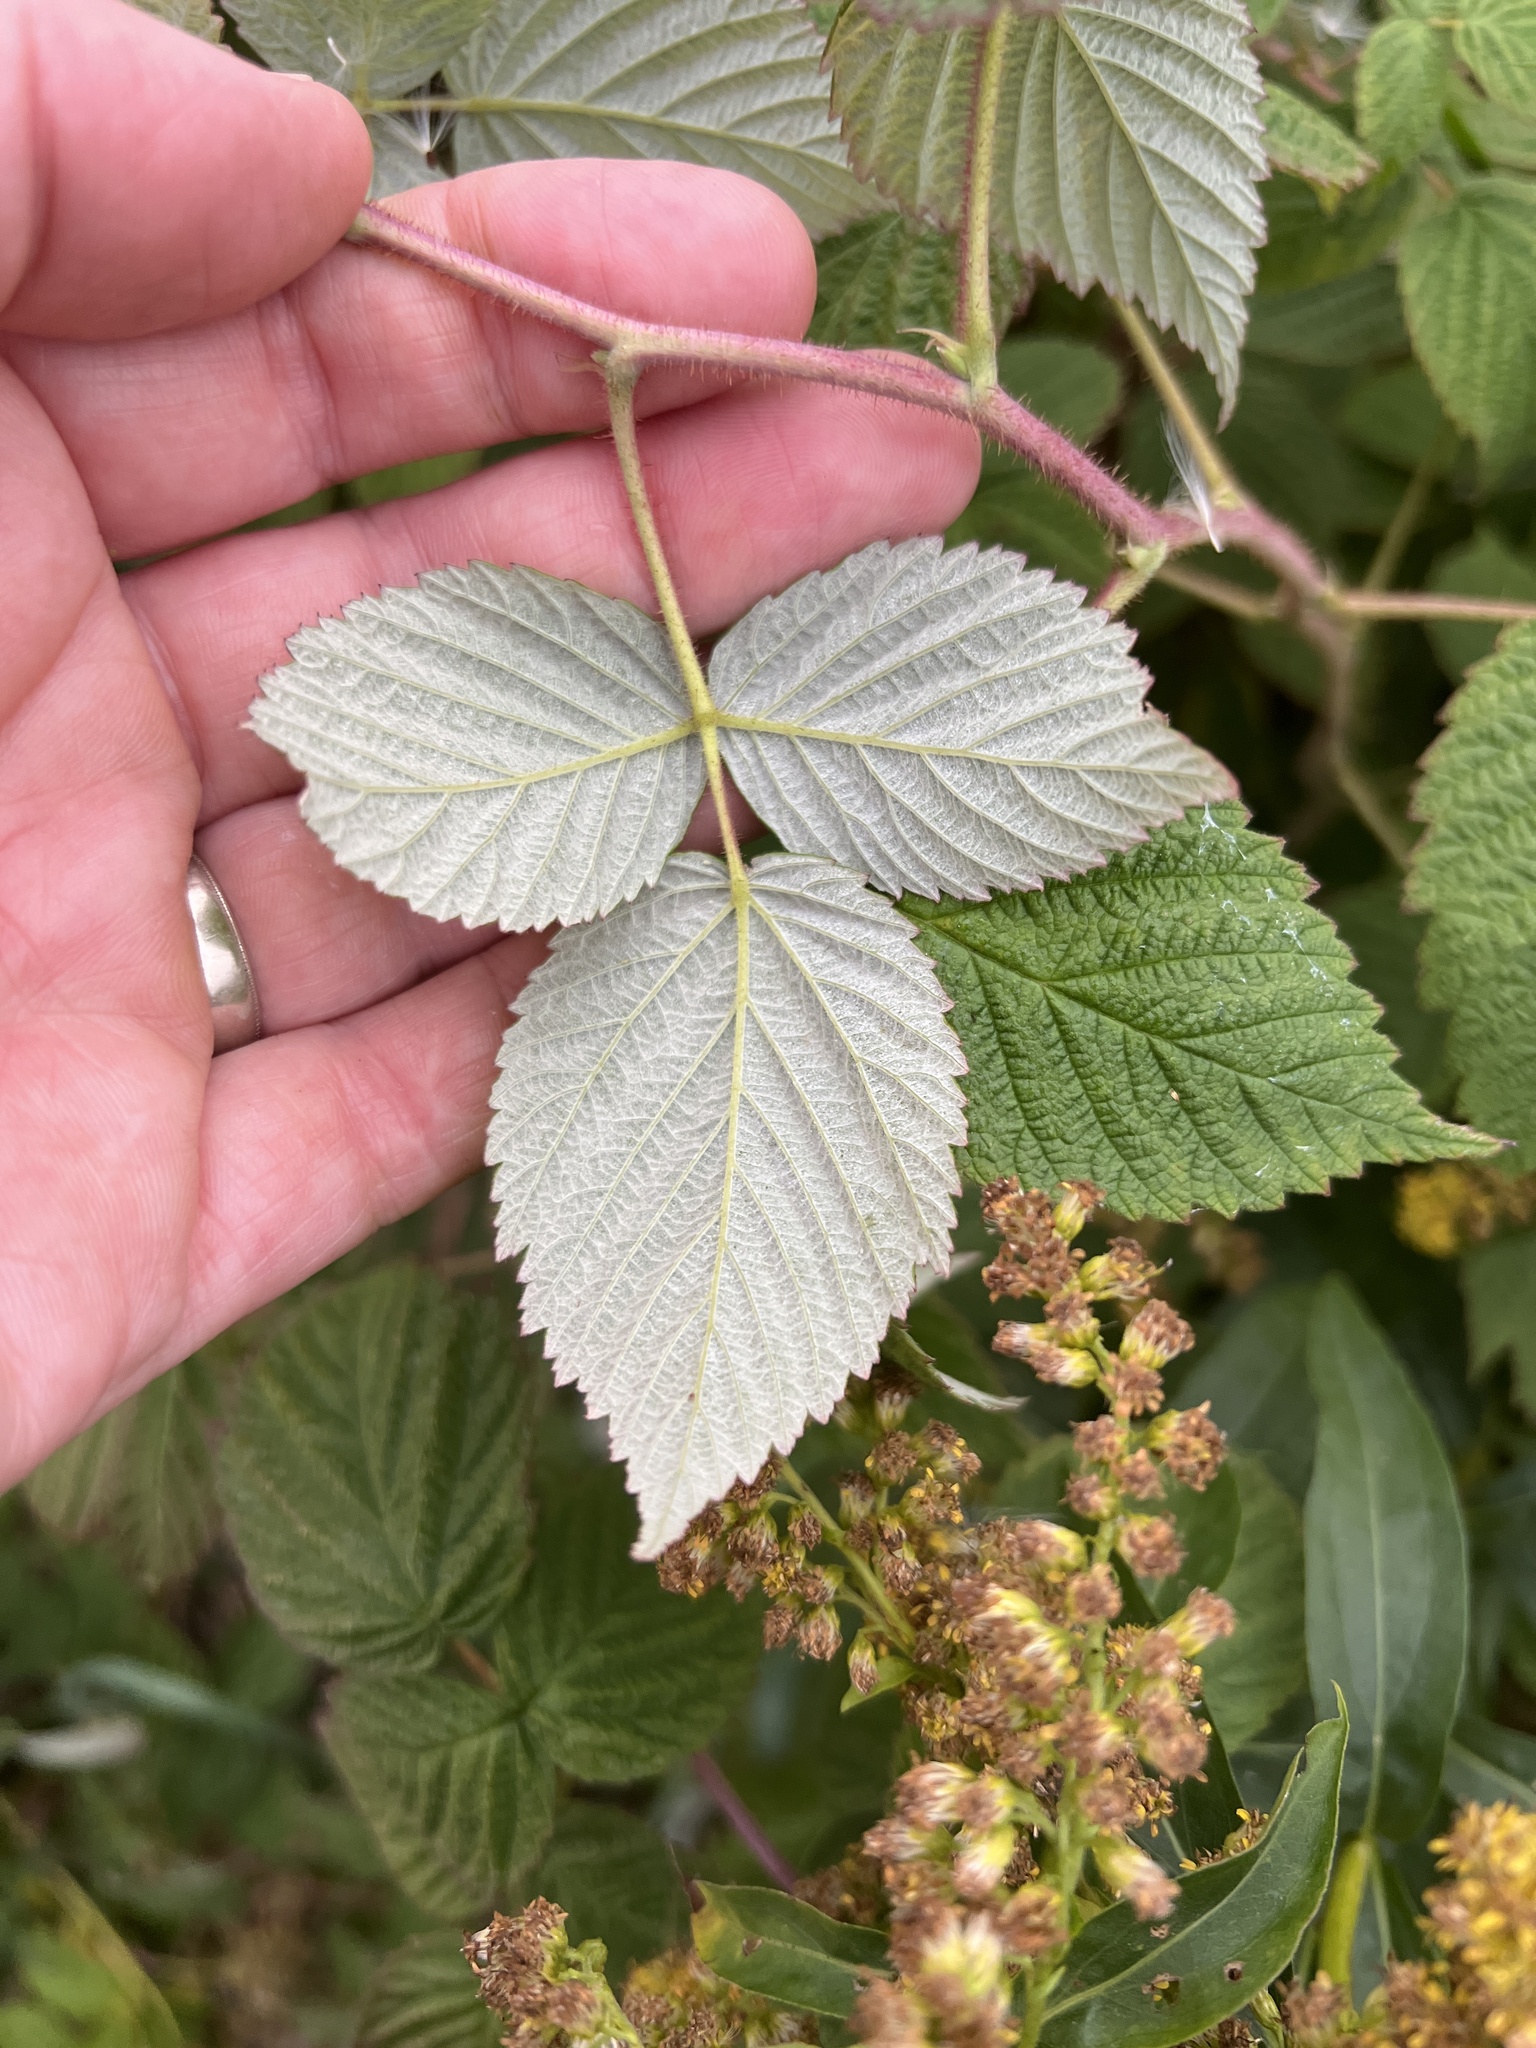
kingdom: Plantae
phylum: Tracheophyta
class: Magnoliopsida
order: Rosales
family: Rosaceae
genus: Rubus
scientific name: Rubus idaeus
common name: Raspberry
